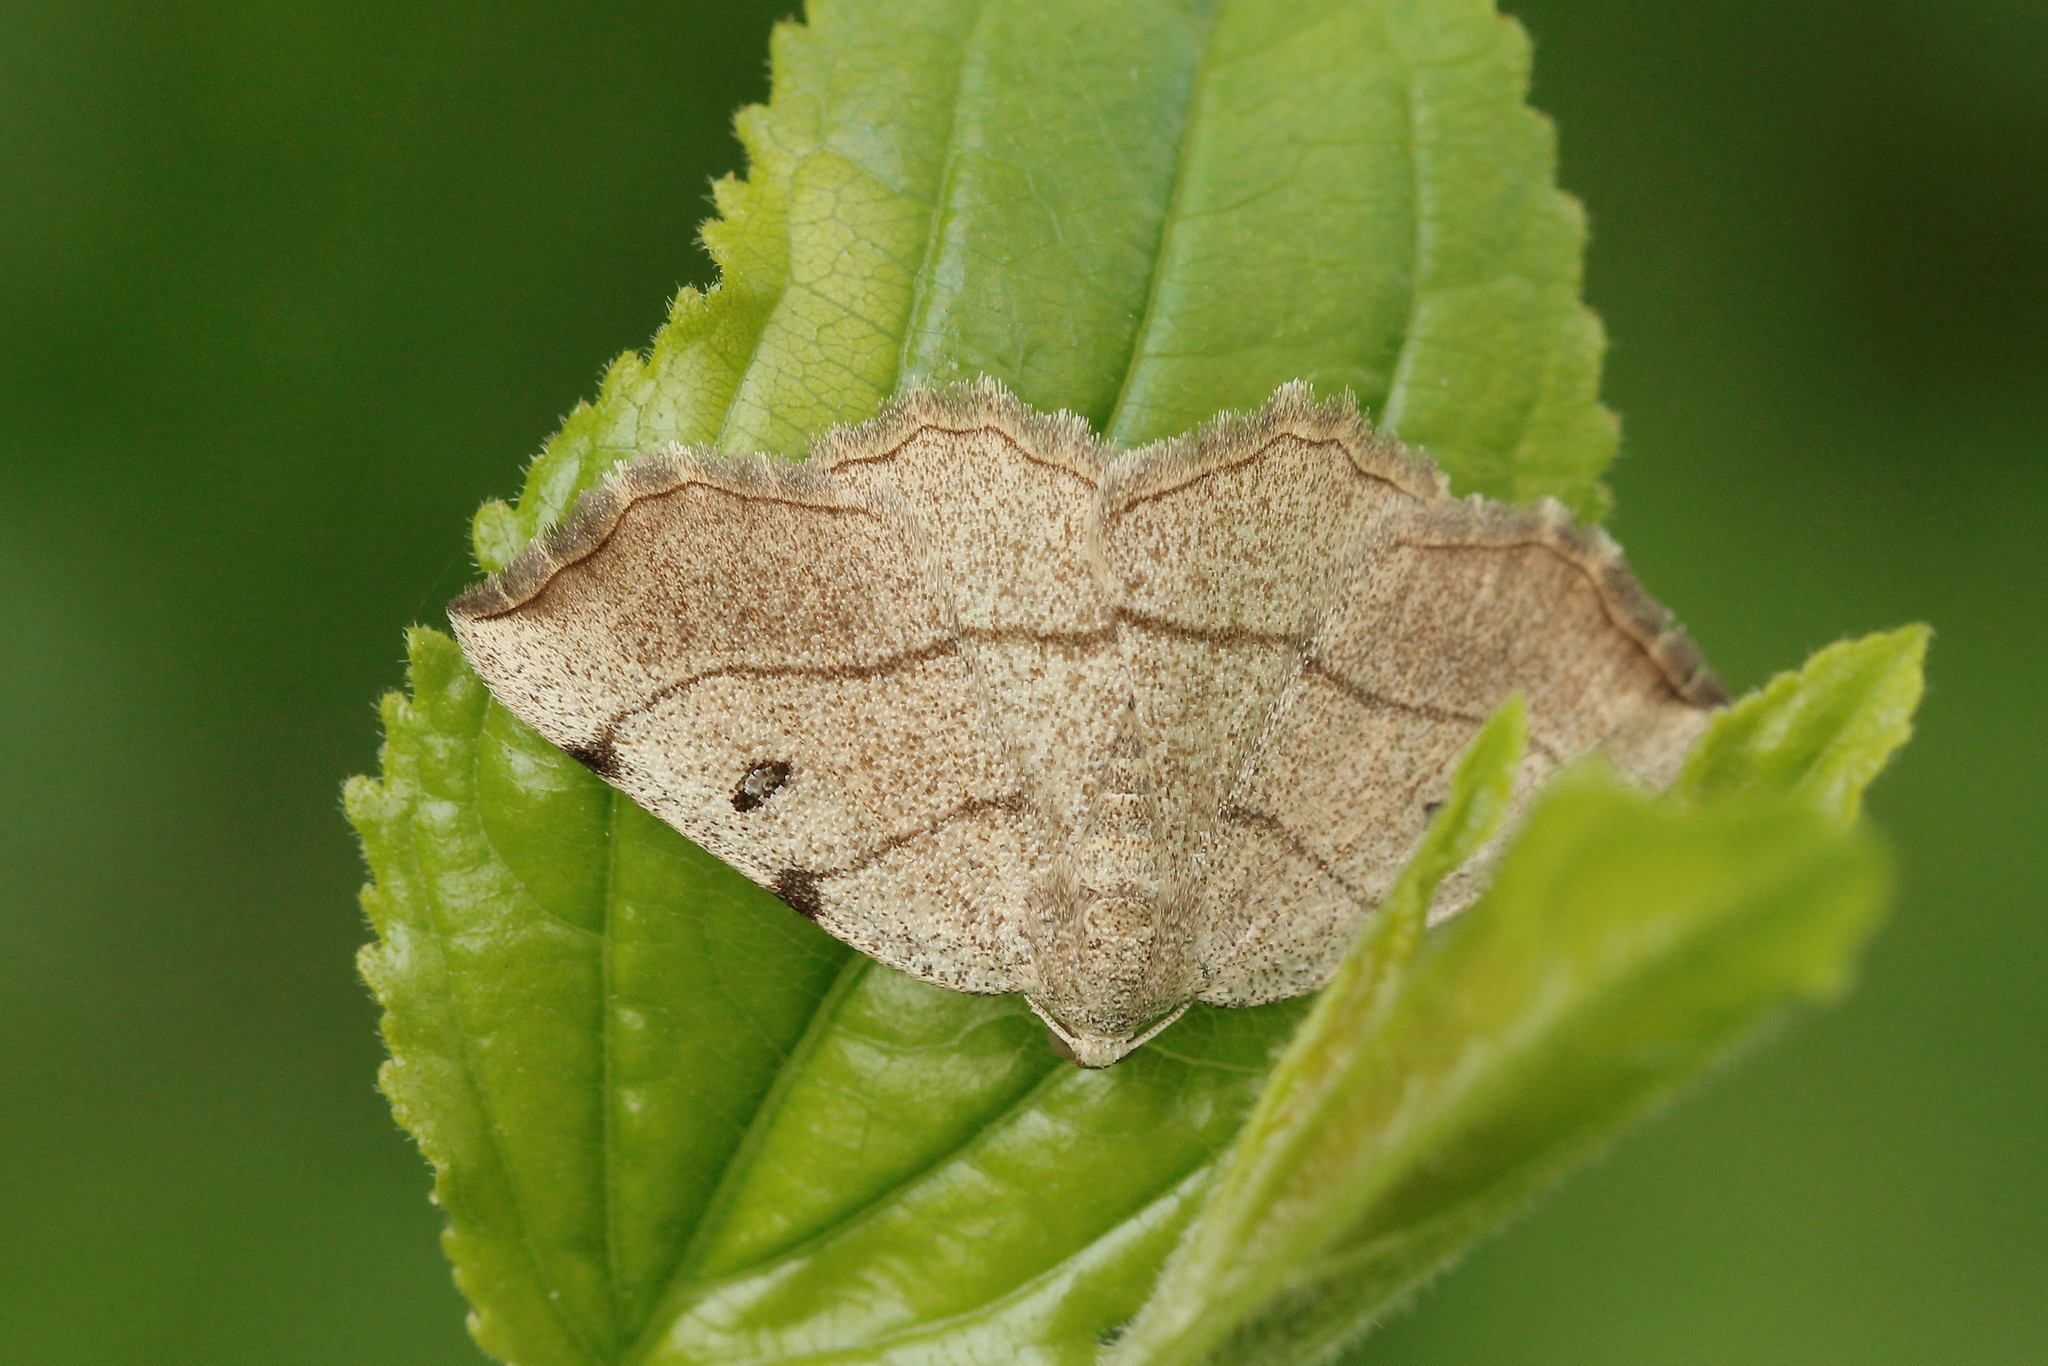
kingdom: Animalia
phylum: Arthropoda
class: Insecta
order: Lepidoptera
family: Geometridae
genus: Eilicrinia
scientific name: Eilicrinia trinotata
